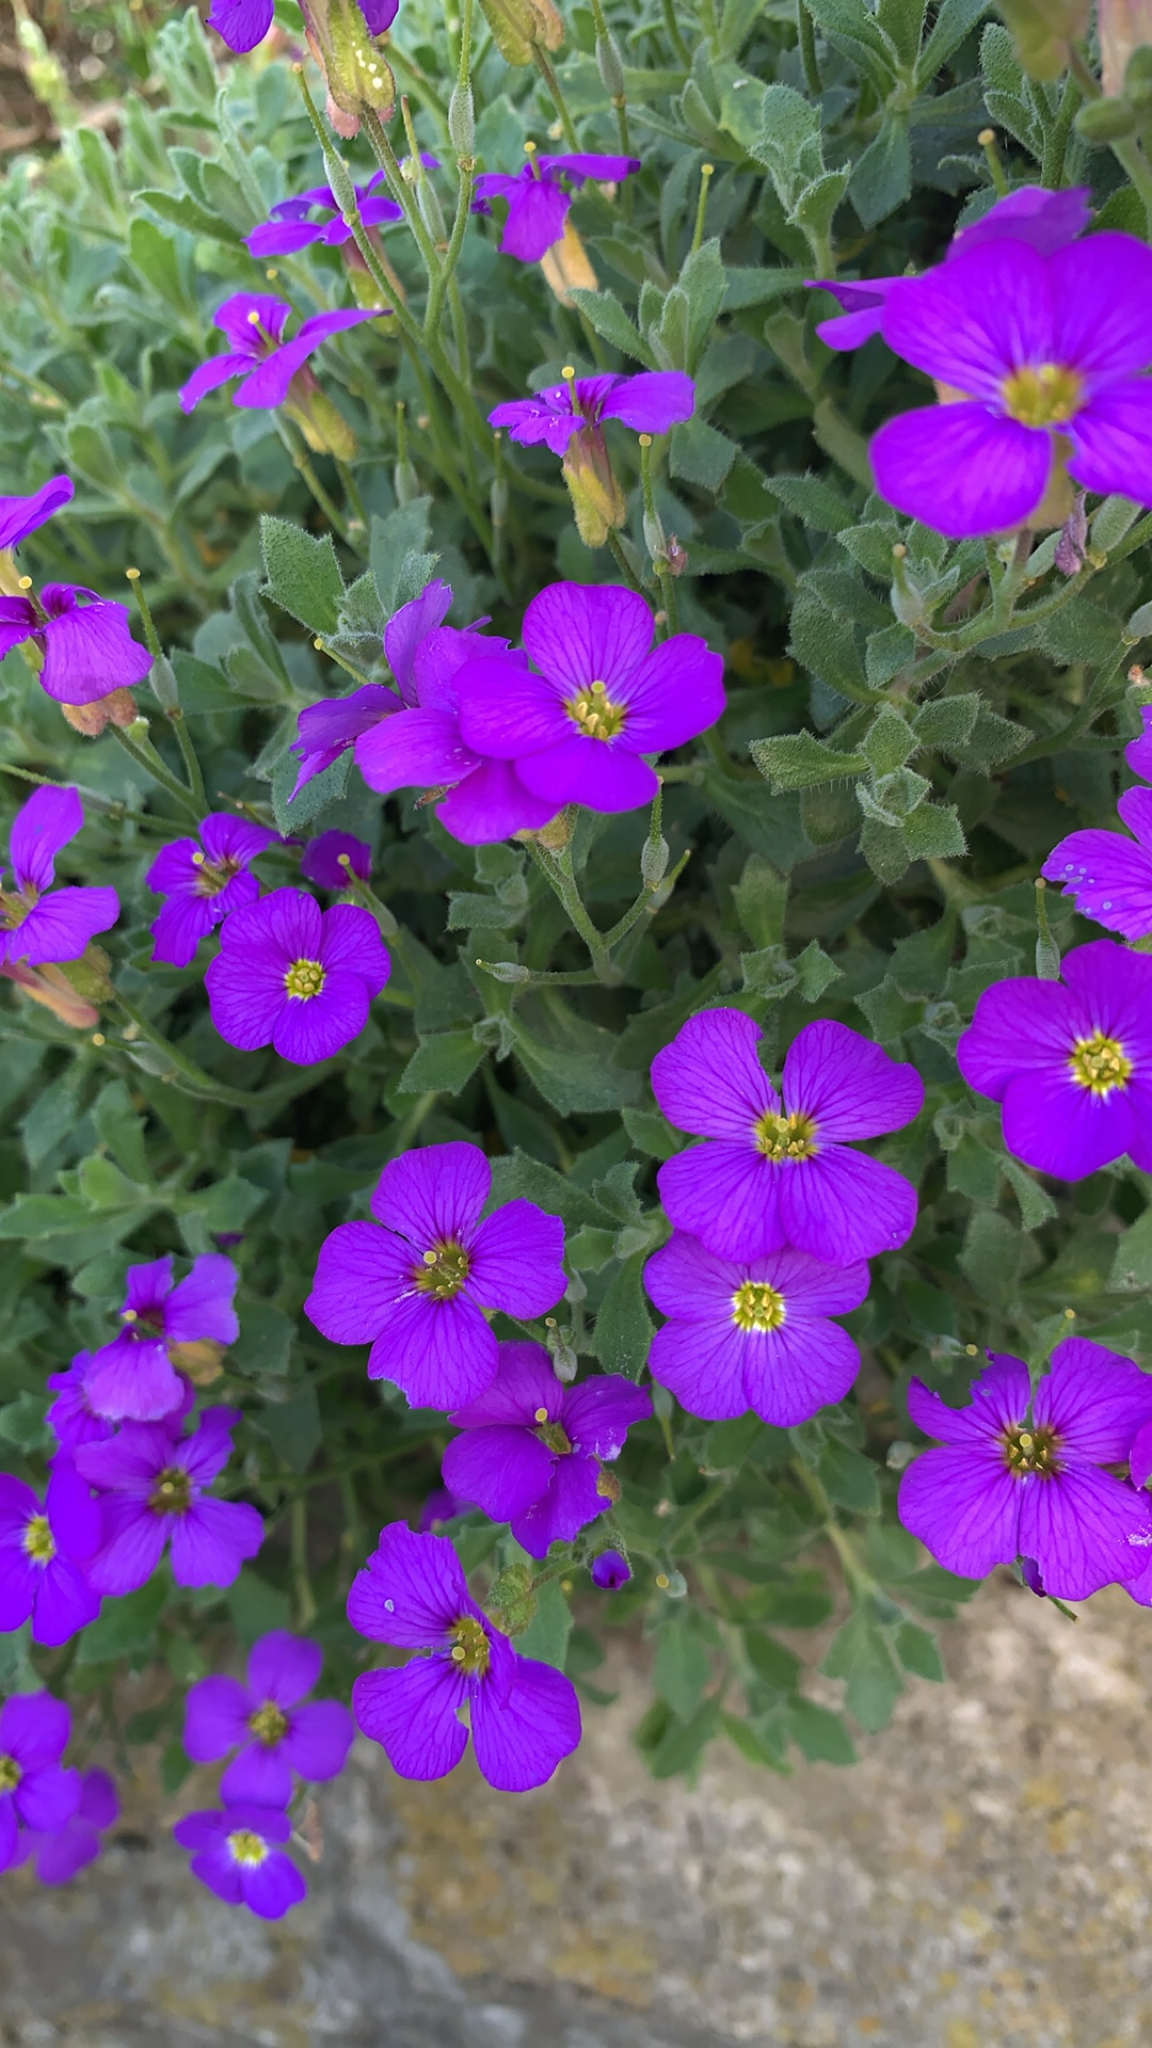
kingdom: Plantae
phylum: Tracheophyta
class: Magnoliopsida
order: Brassicales
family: Brassicaceae
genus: Aubrieta
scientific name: Aubrieta deltoidea
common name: Aubretia
